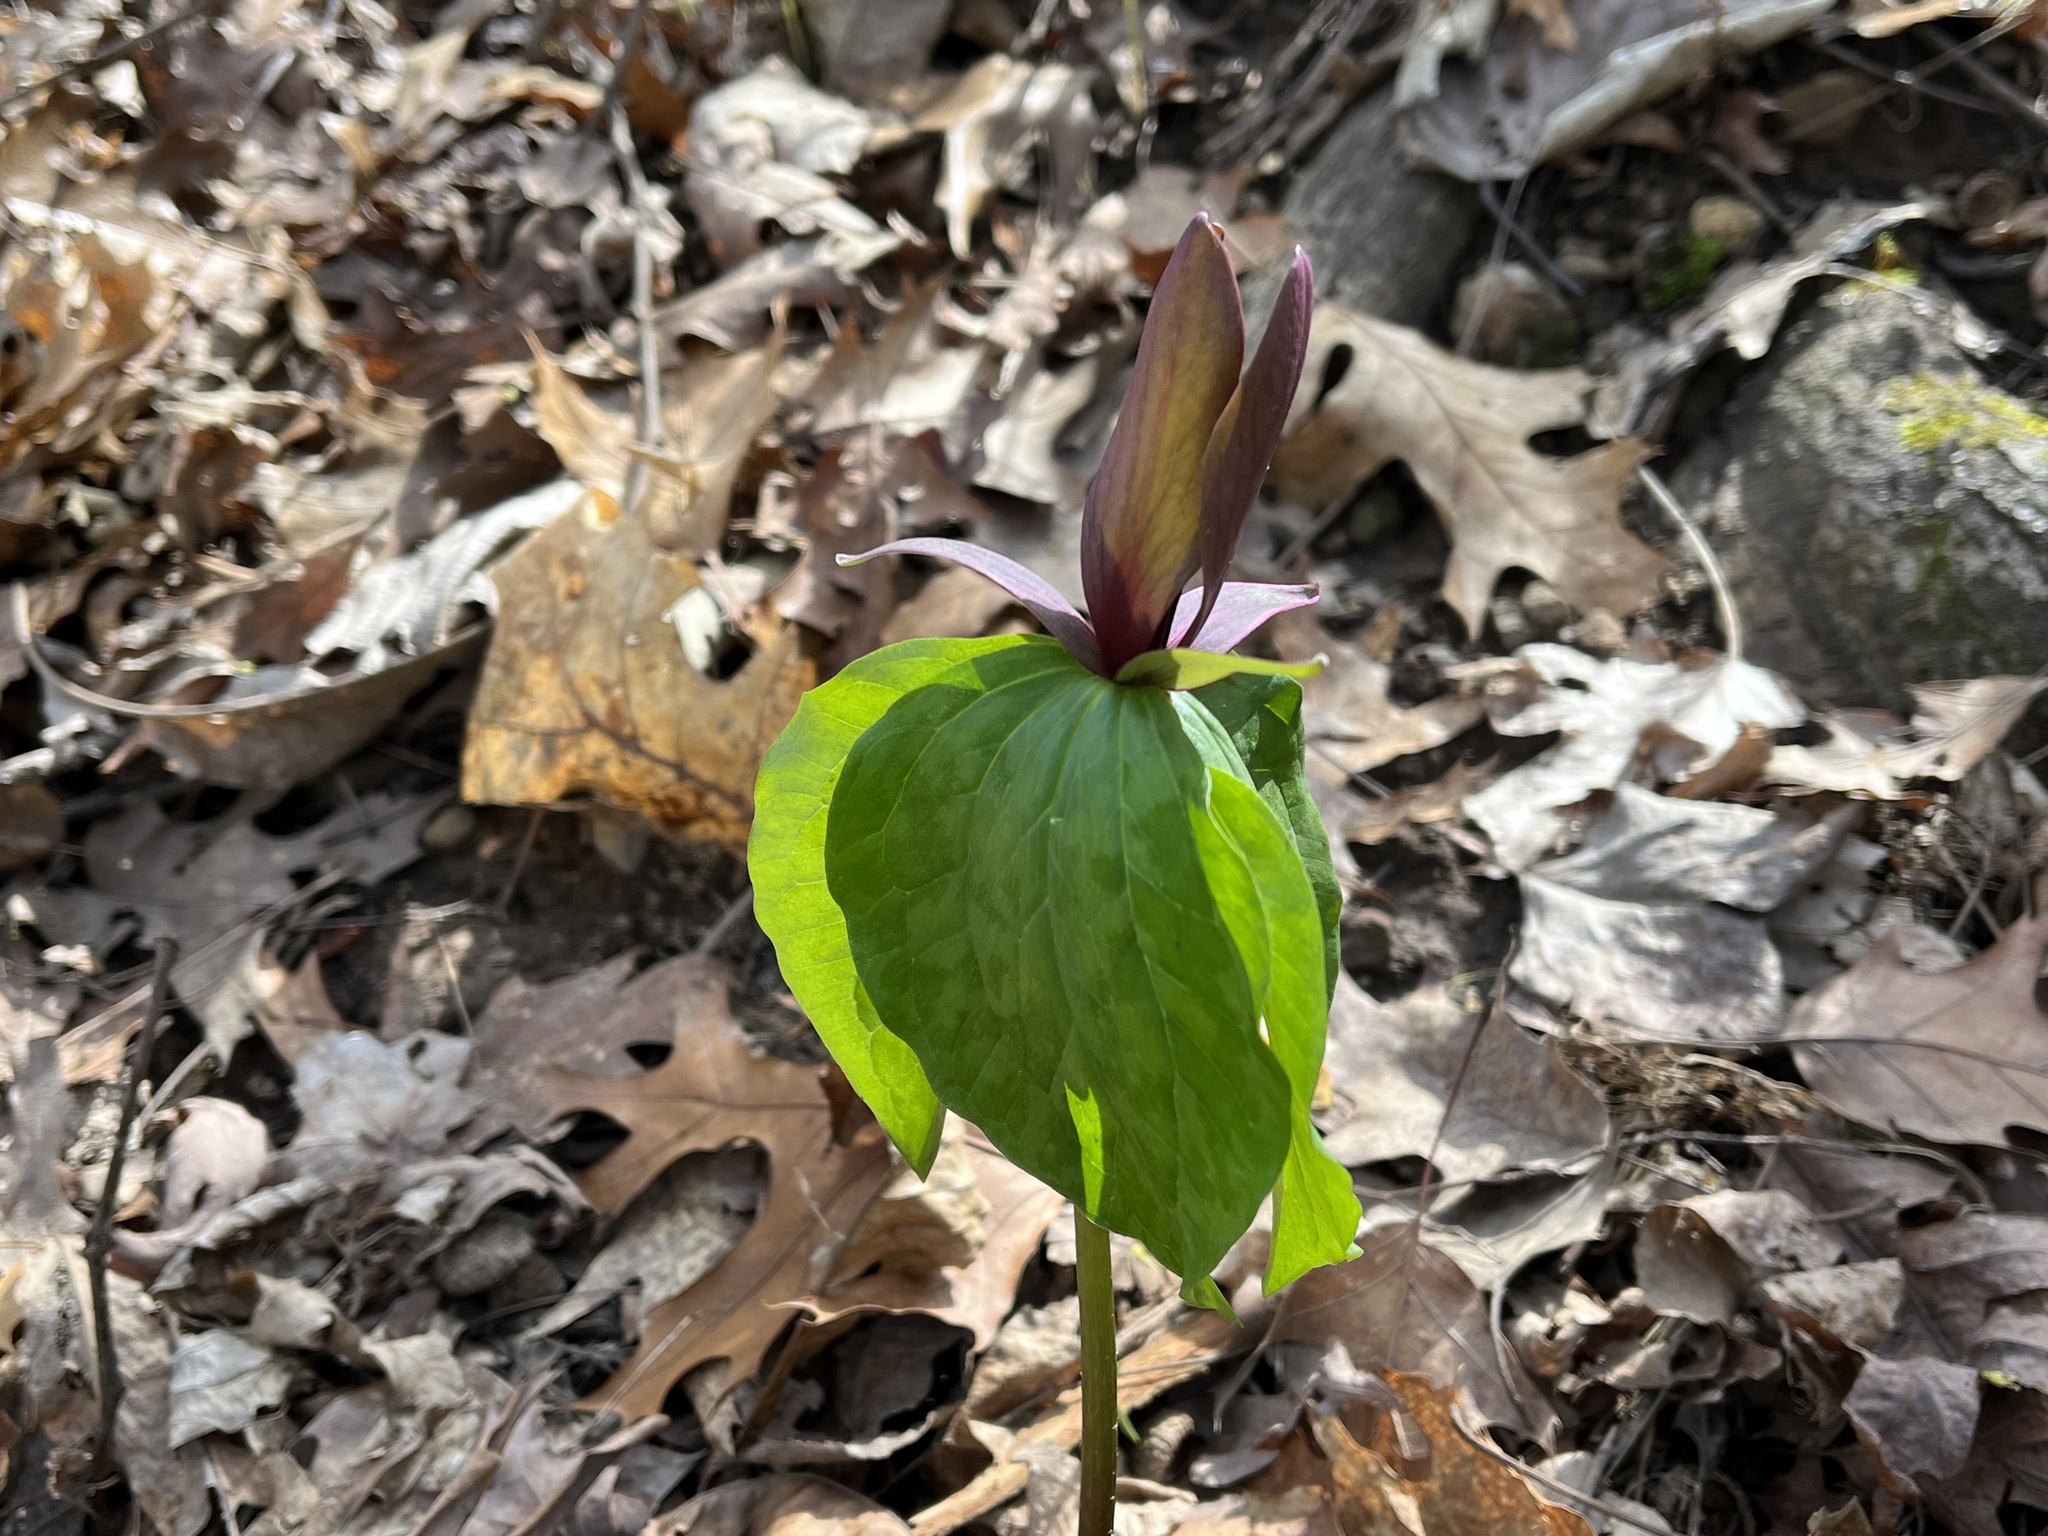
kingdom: Plantae
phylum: Tracheophyta
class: Liliopsida
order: Liliales
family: Melanthiaceae
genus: Trillium
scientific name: Trillium cuneatum
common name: Cuneate trillium
